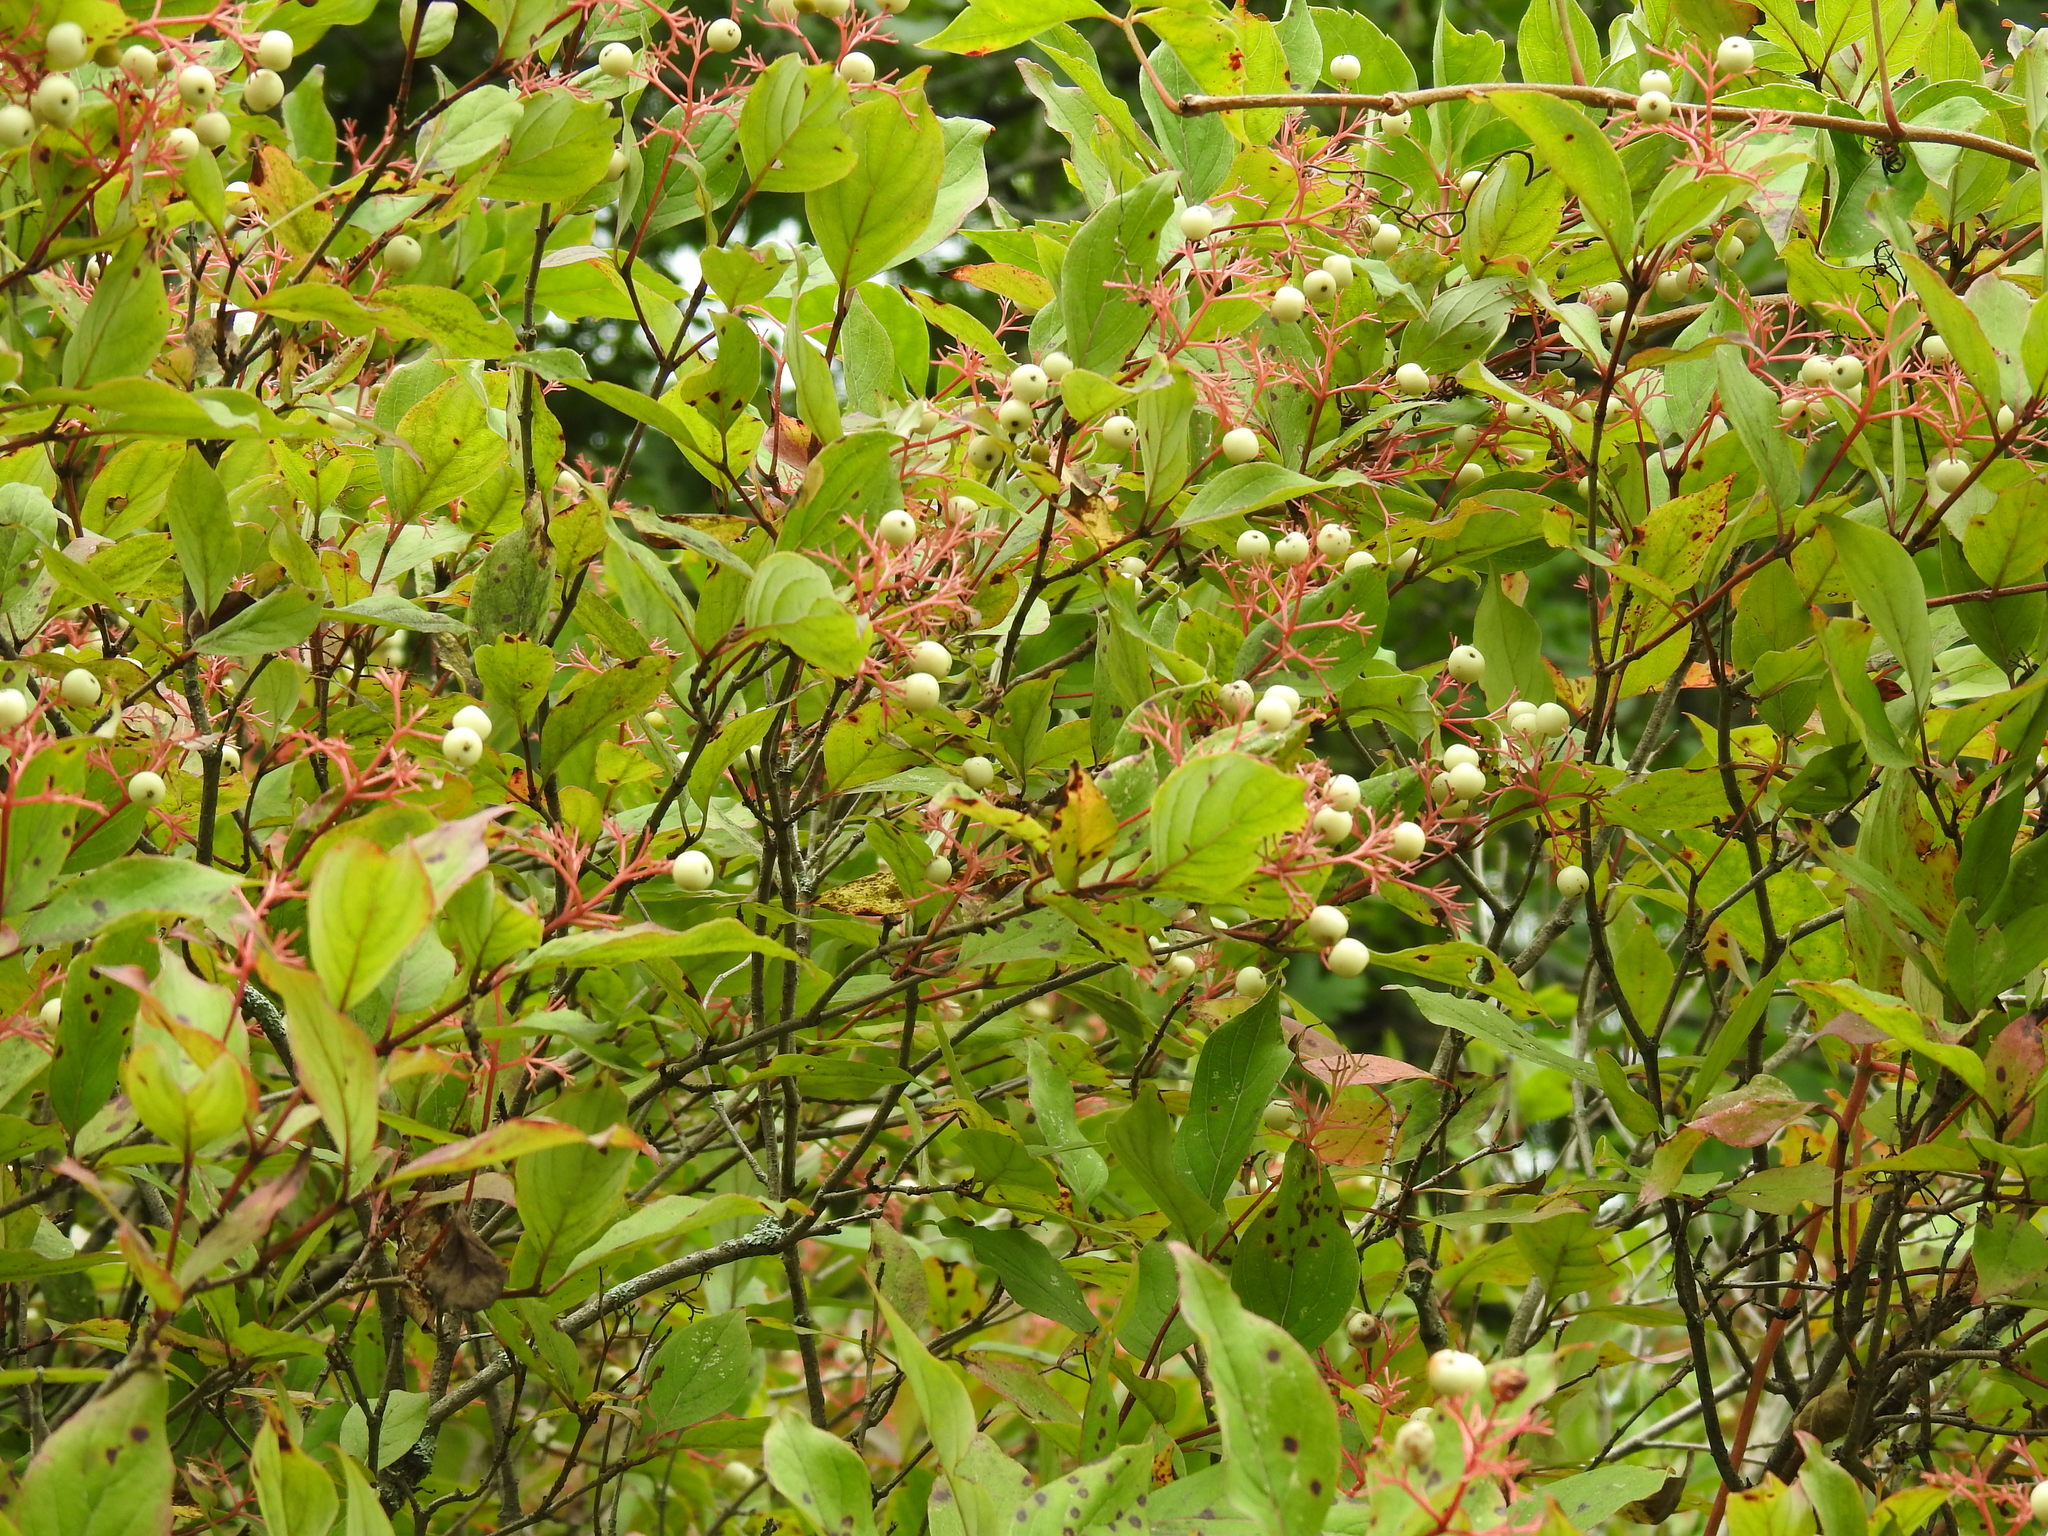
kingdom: Plantae
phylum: Tracheophyta
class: Magnoliopsida
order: Cornales
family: Cornaceae
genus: Cornus
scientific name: Cornus racemosa
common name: Panicled dogwood
